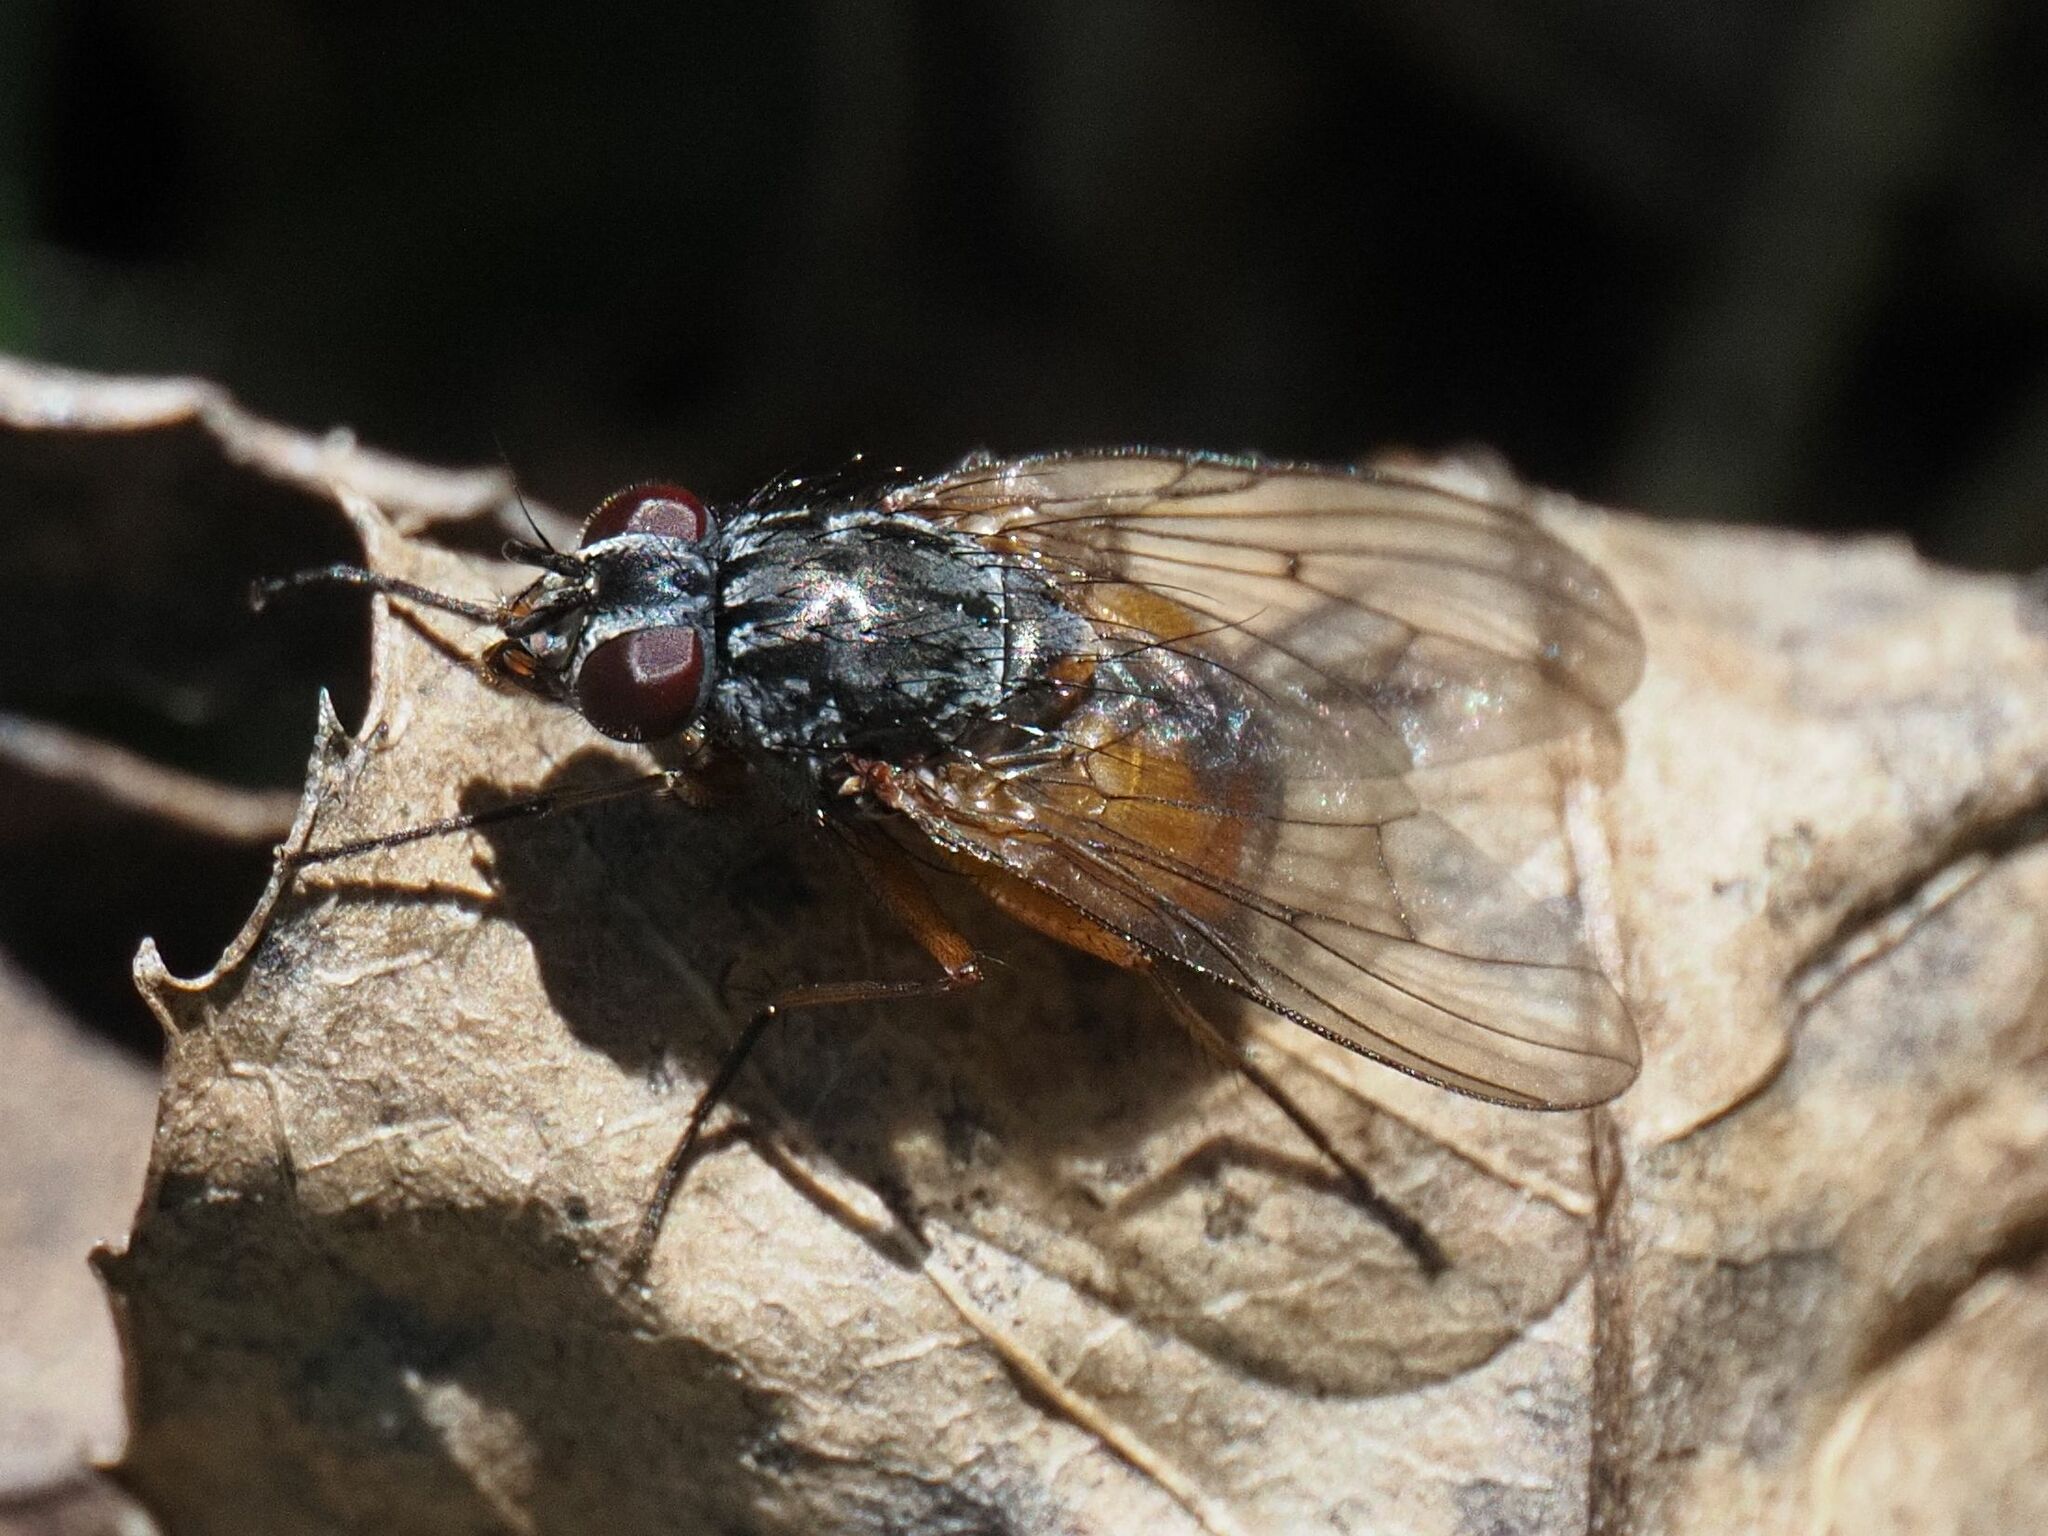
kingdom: Animalia
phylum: Arthropoda
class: Insecta
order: Diptera
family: Muscidae
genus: Phaonia
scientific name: Phaonia subventa
